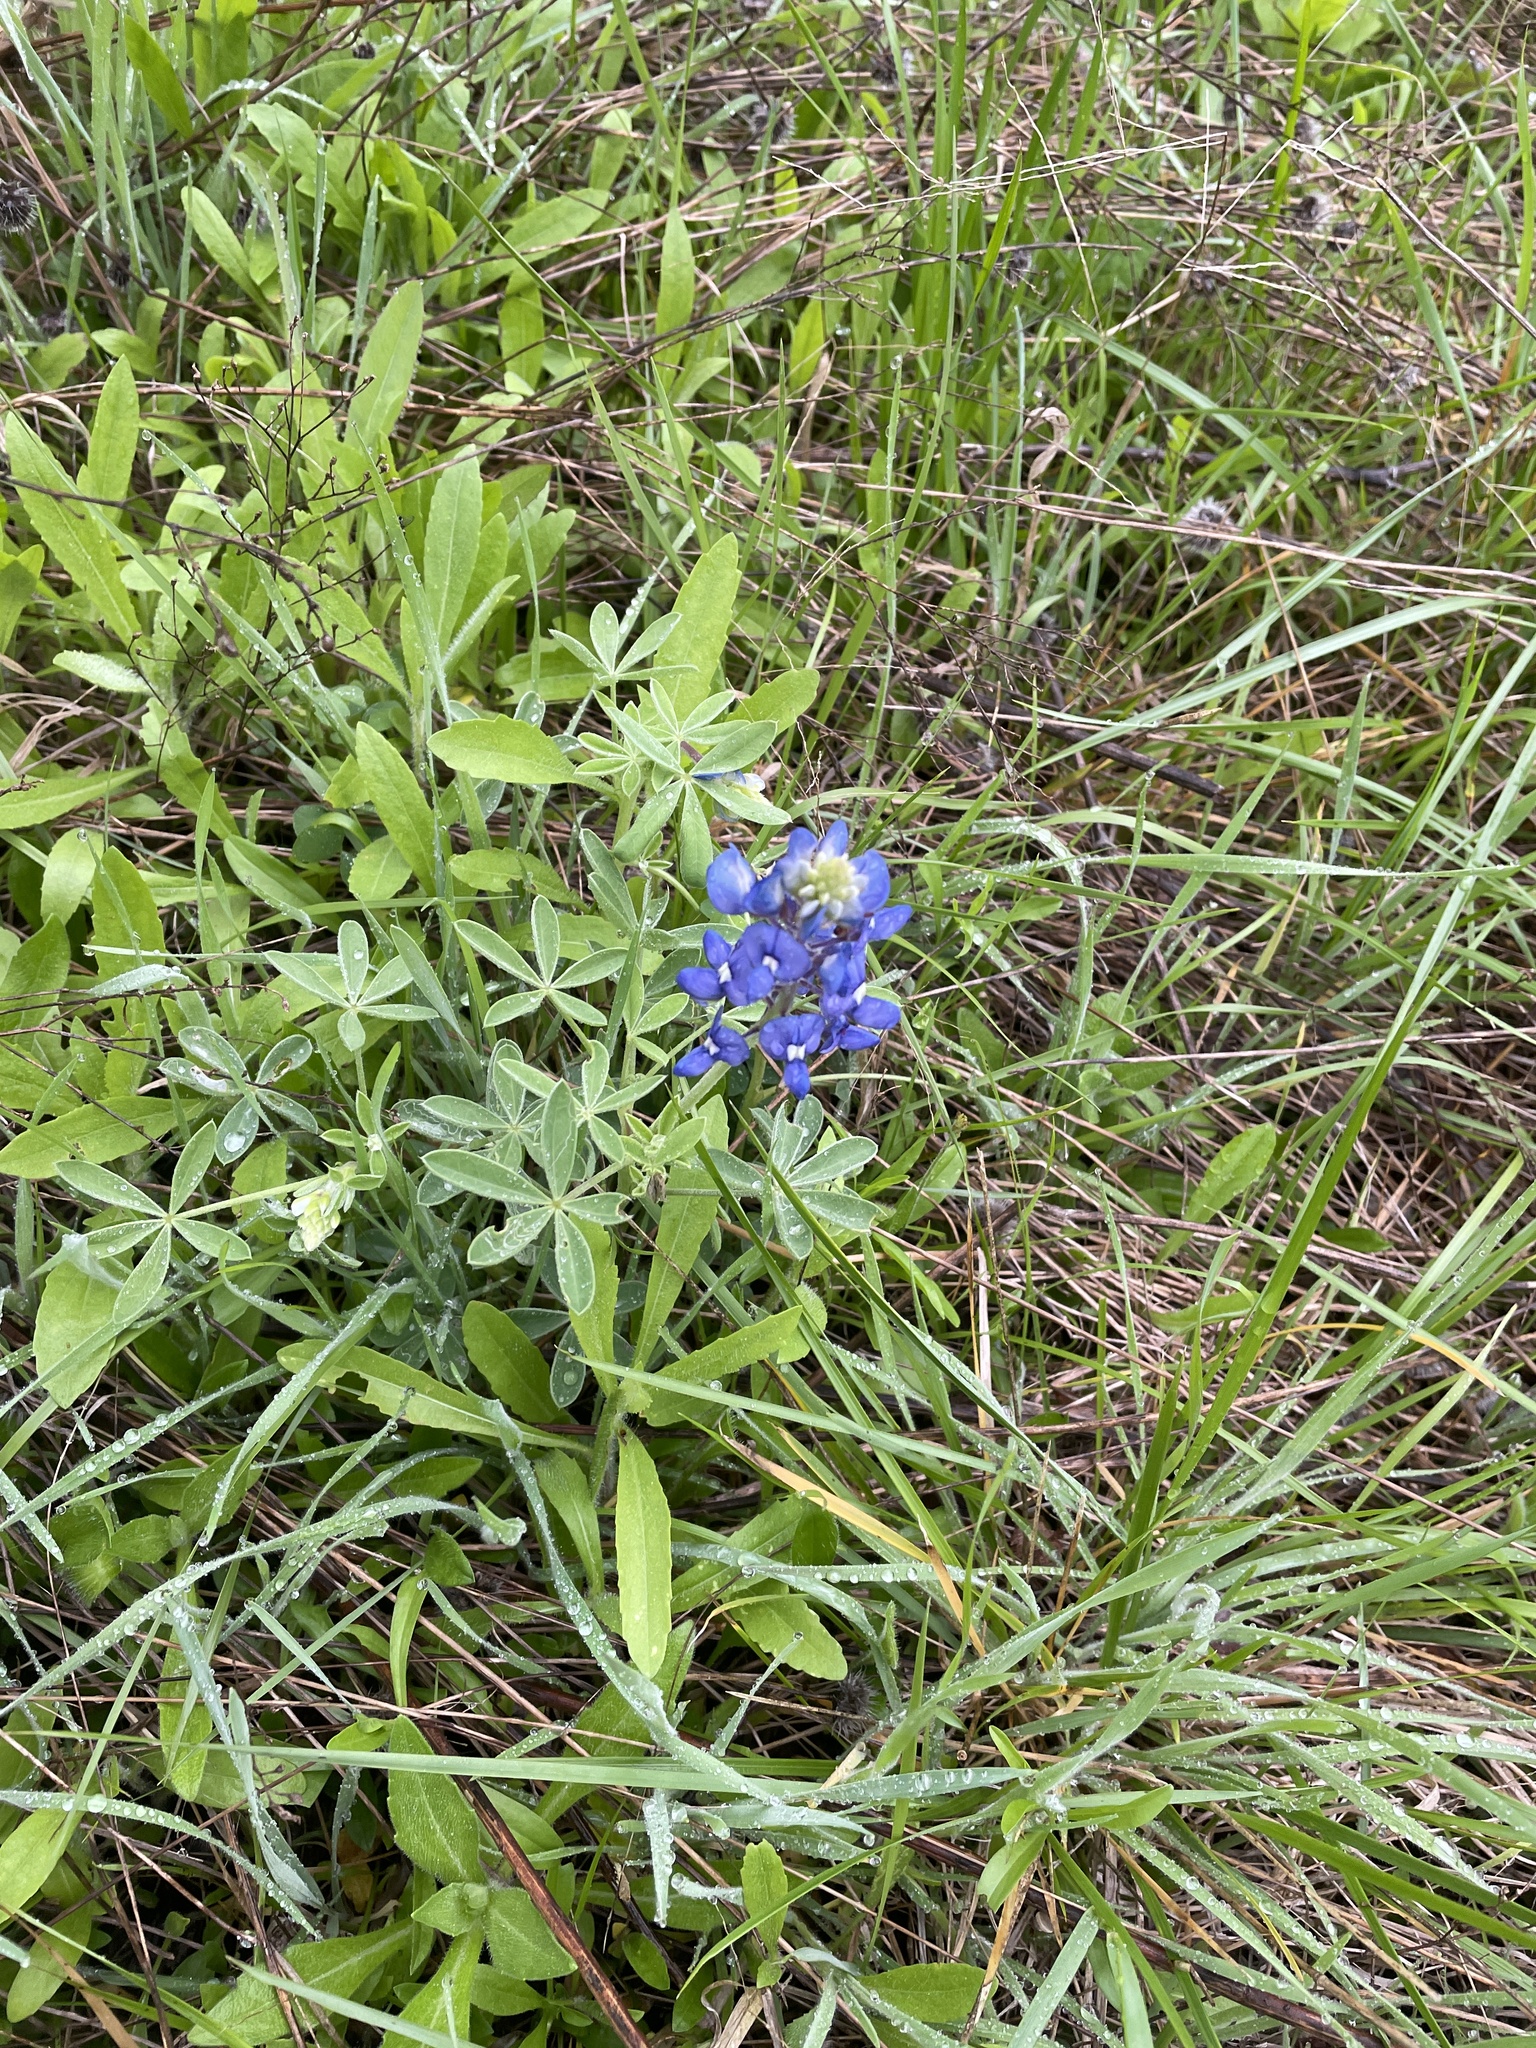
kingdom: Plantae
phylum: Tracheophyta
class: Magnoliopsida
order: Fabales
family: Fabaceae
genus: Lupinus
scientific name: Lupinus texensis
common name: Texas bluebonnet
